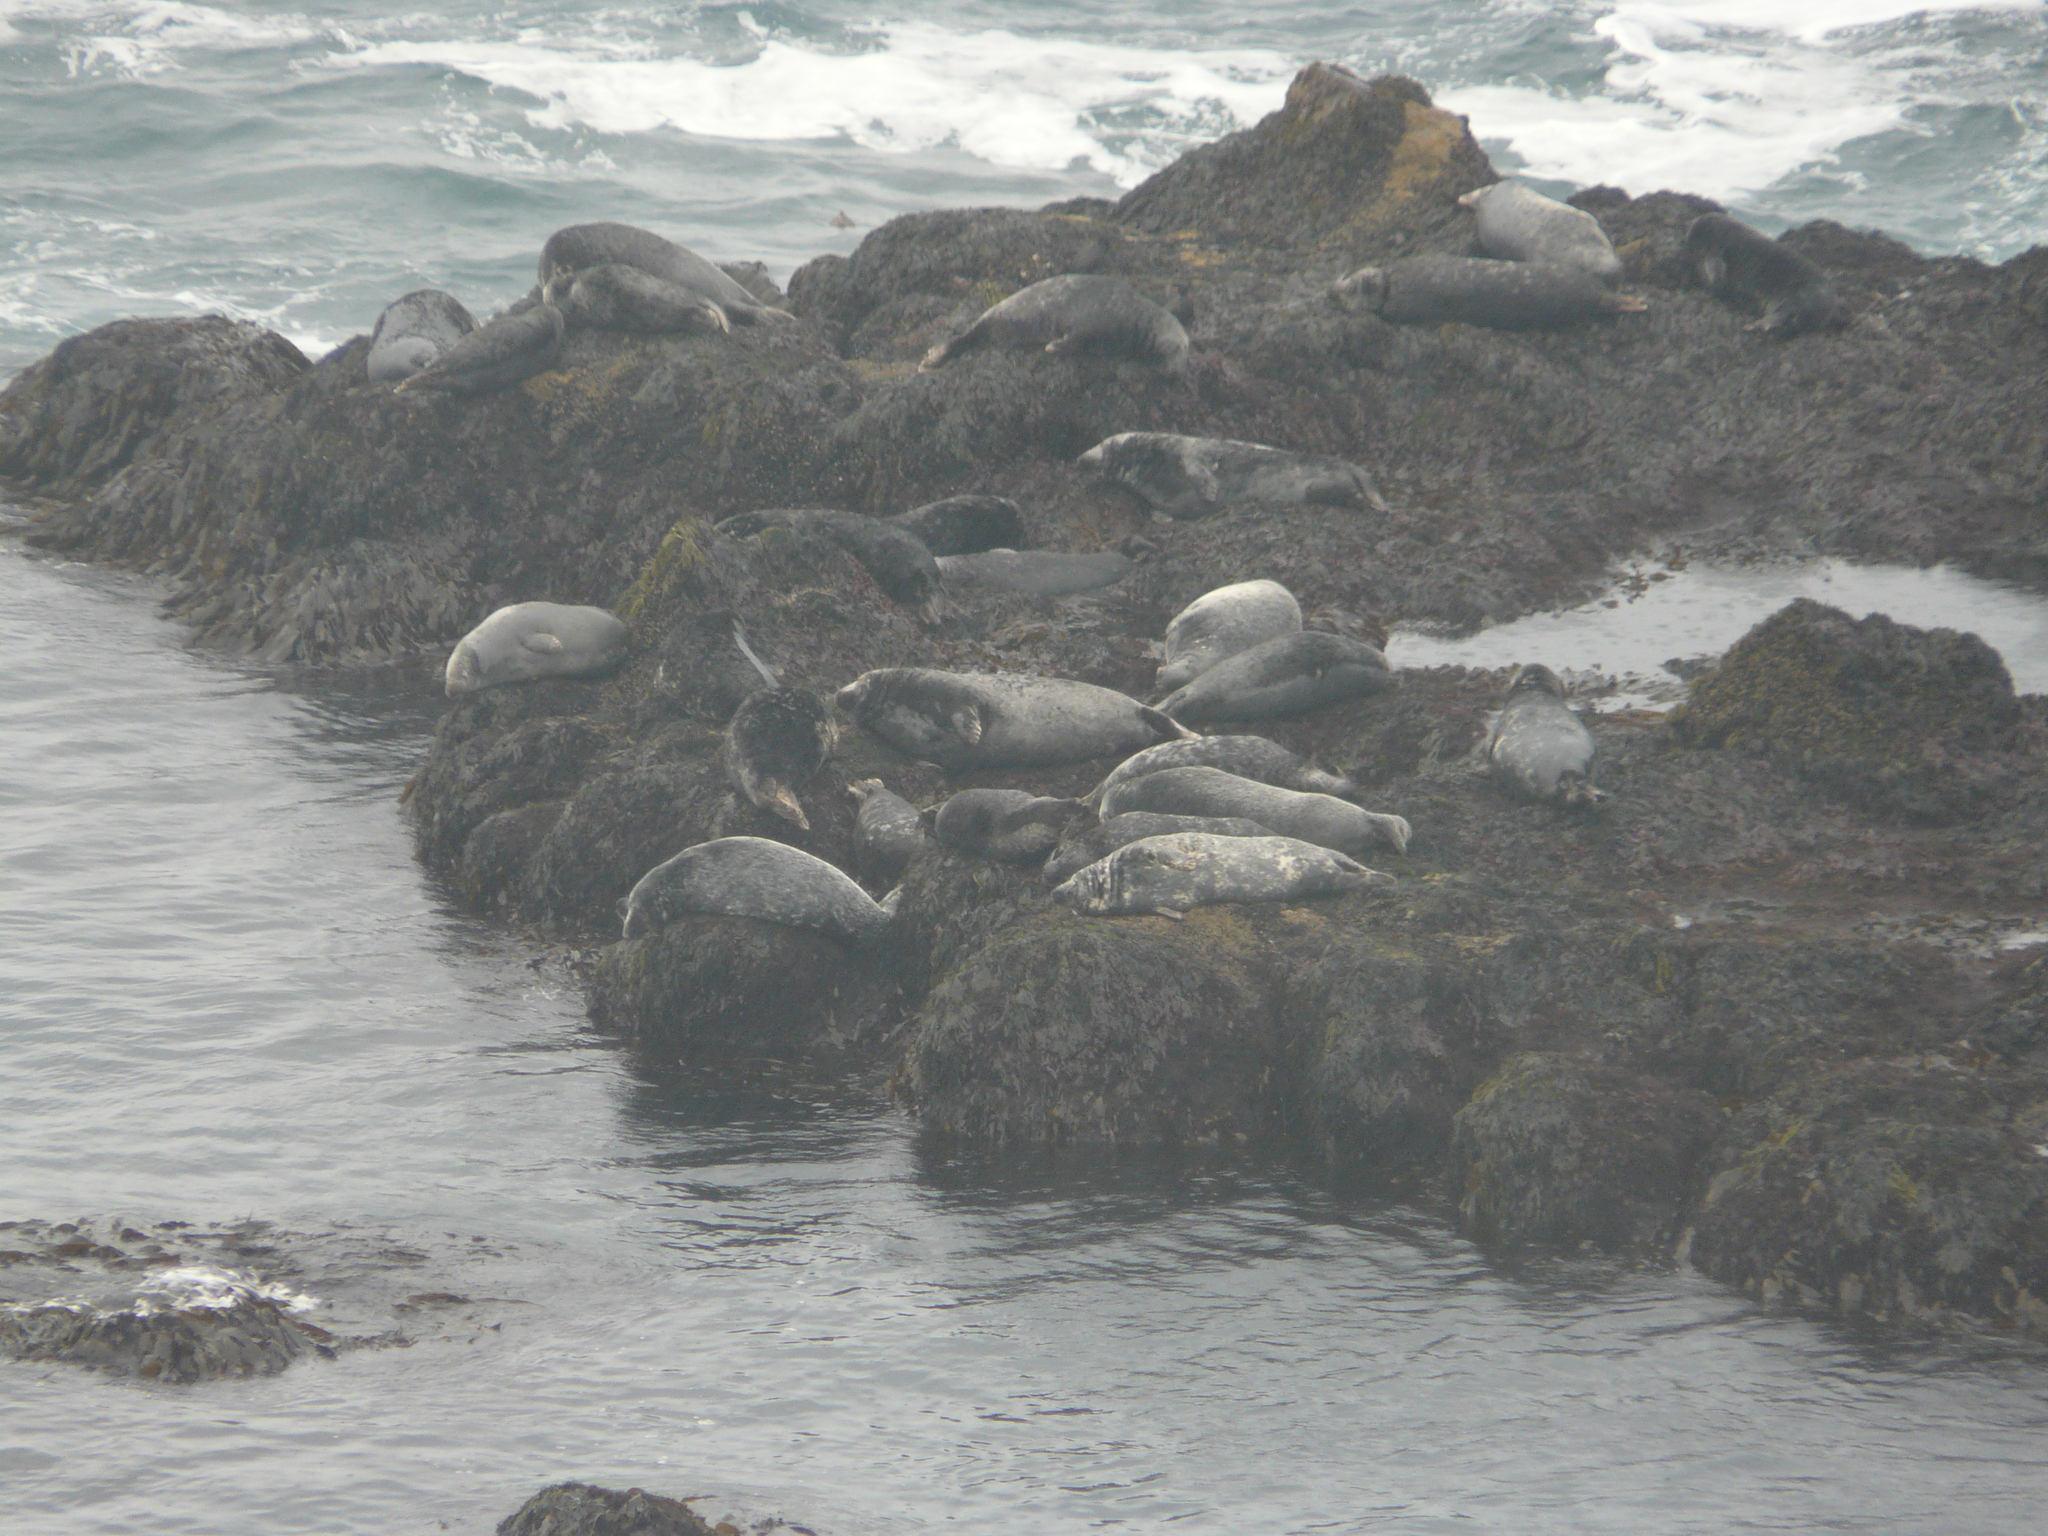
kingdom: Animalia
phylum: Chordata
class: Mammalia
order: Carnivora
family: Phocidae
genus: Halichoerus
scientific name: Halichoerus grypus
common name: Grey seal
